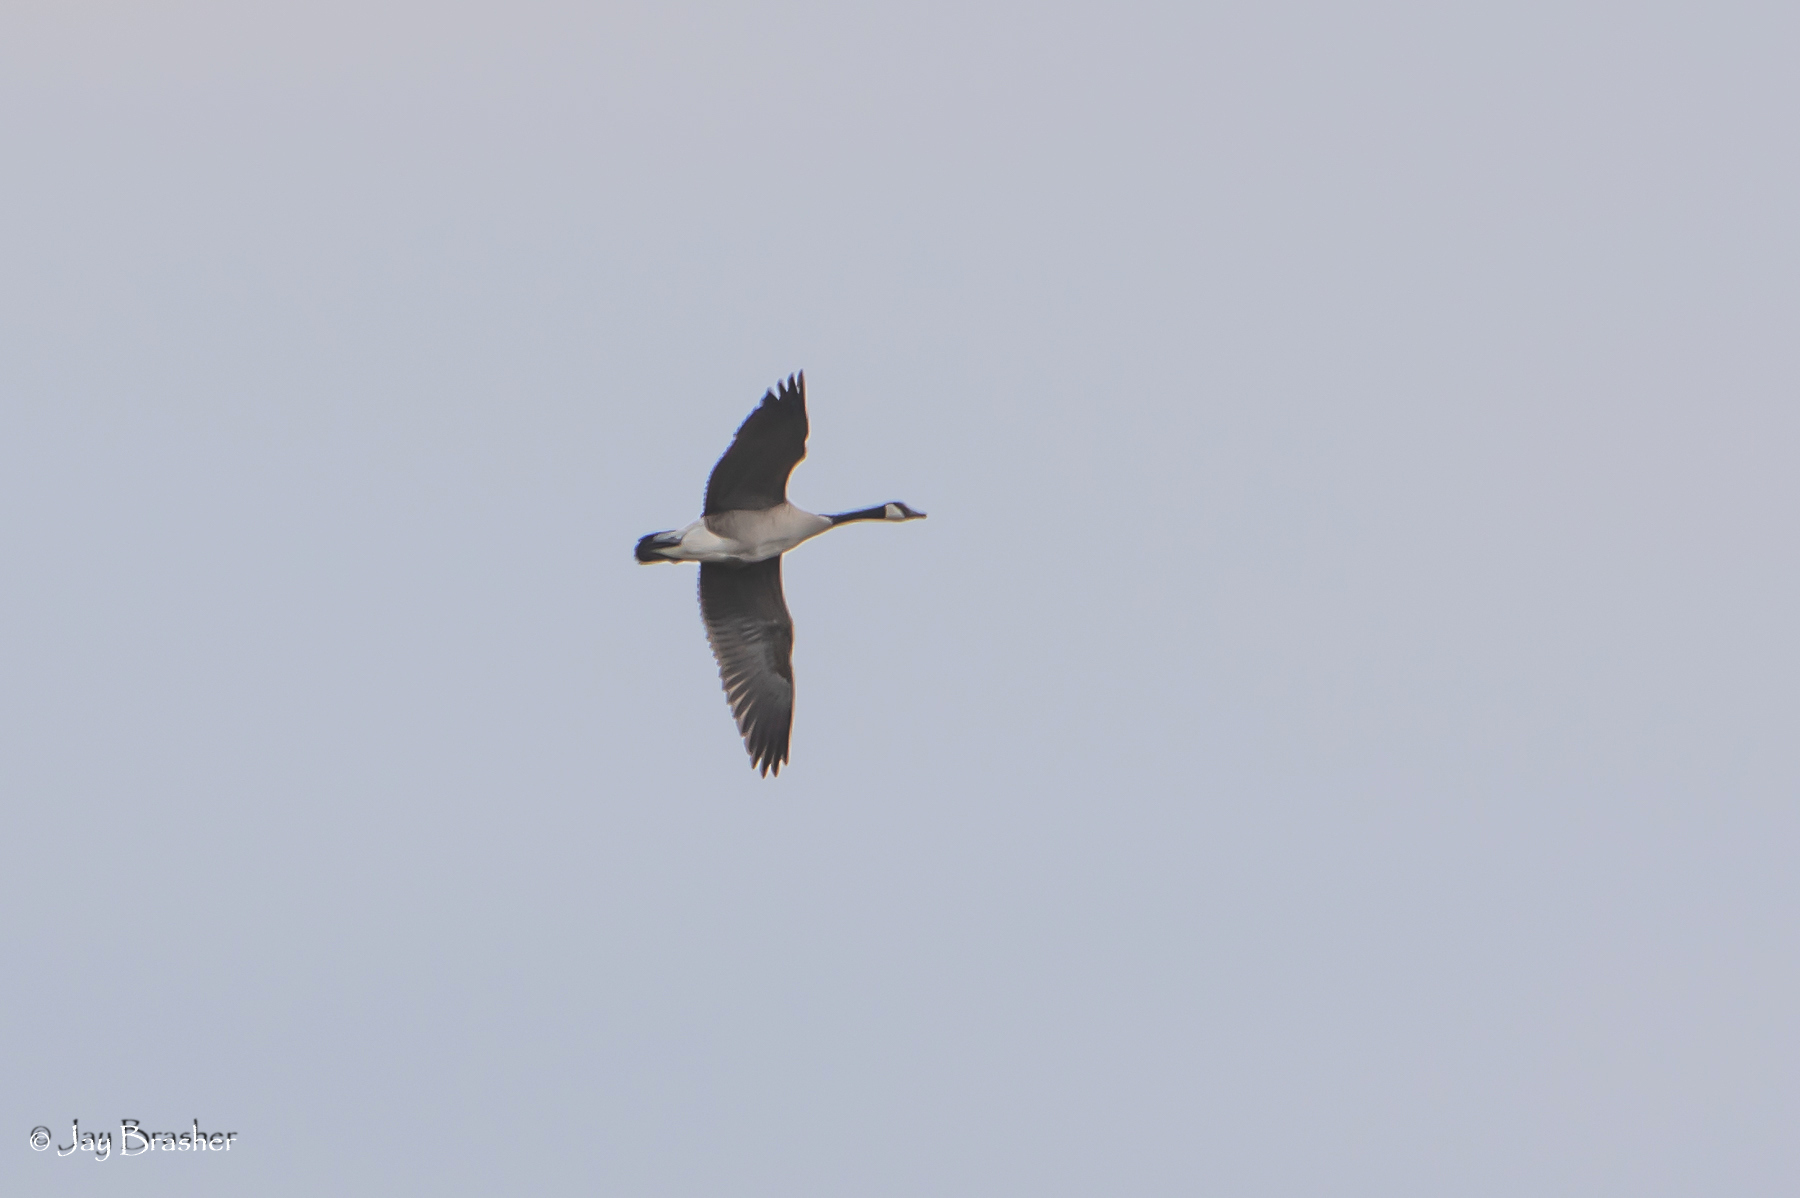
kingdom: Animalia
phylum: Chordata
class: Aves
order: Anseriformes
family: Anatidae
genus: Branta
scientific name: Branta canadensis
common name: Canada goose
